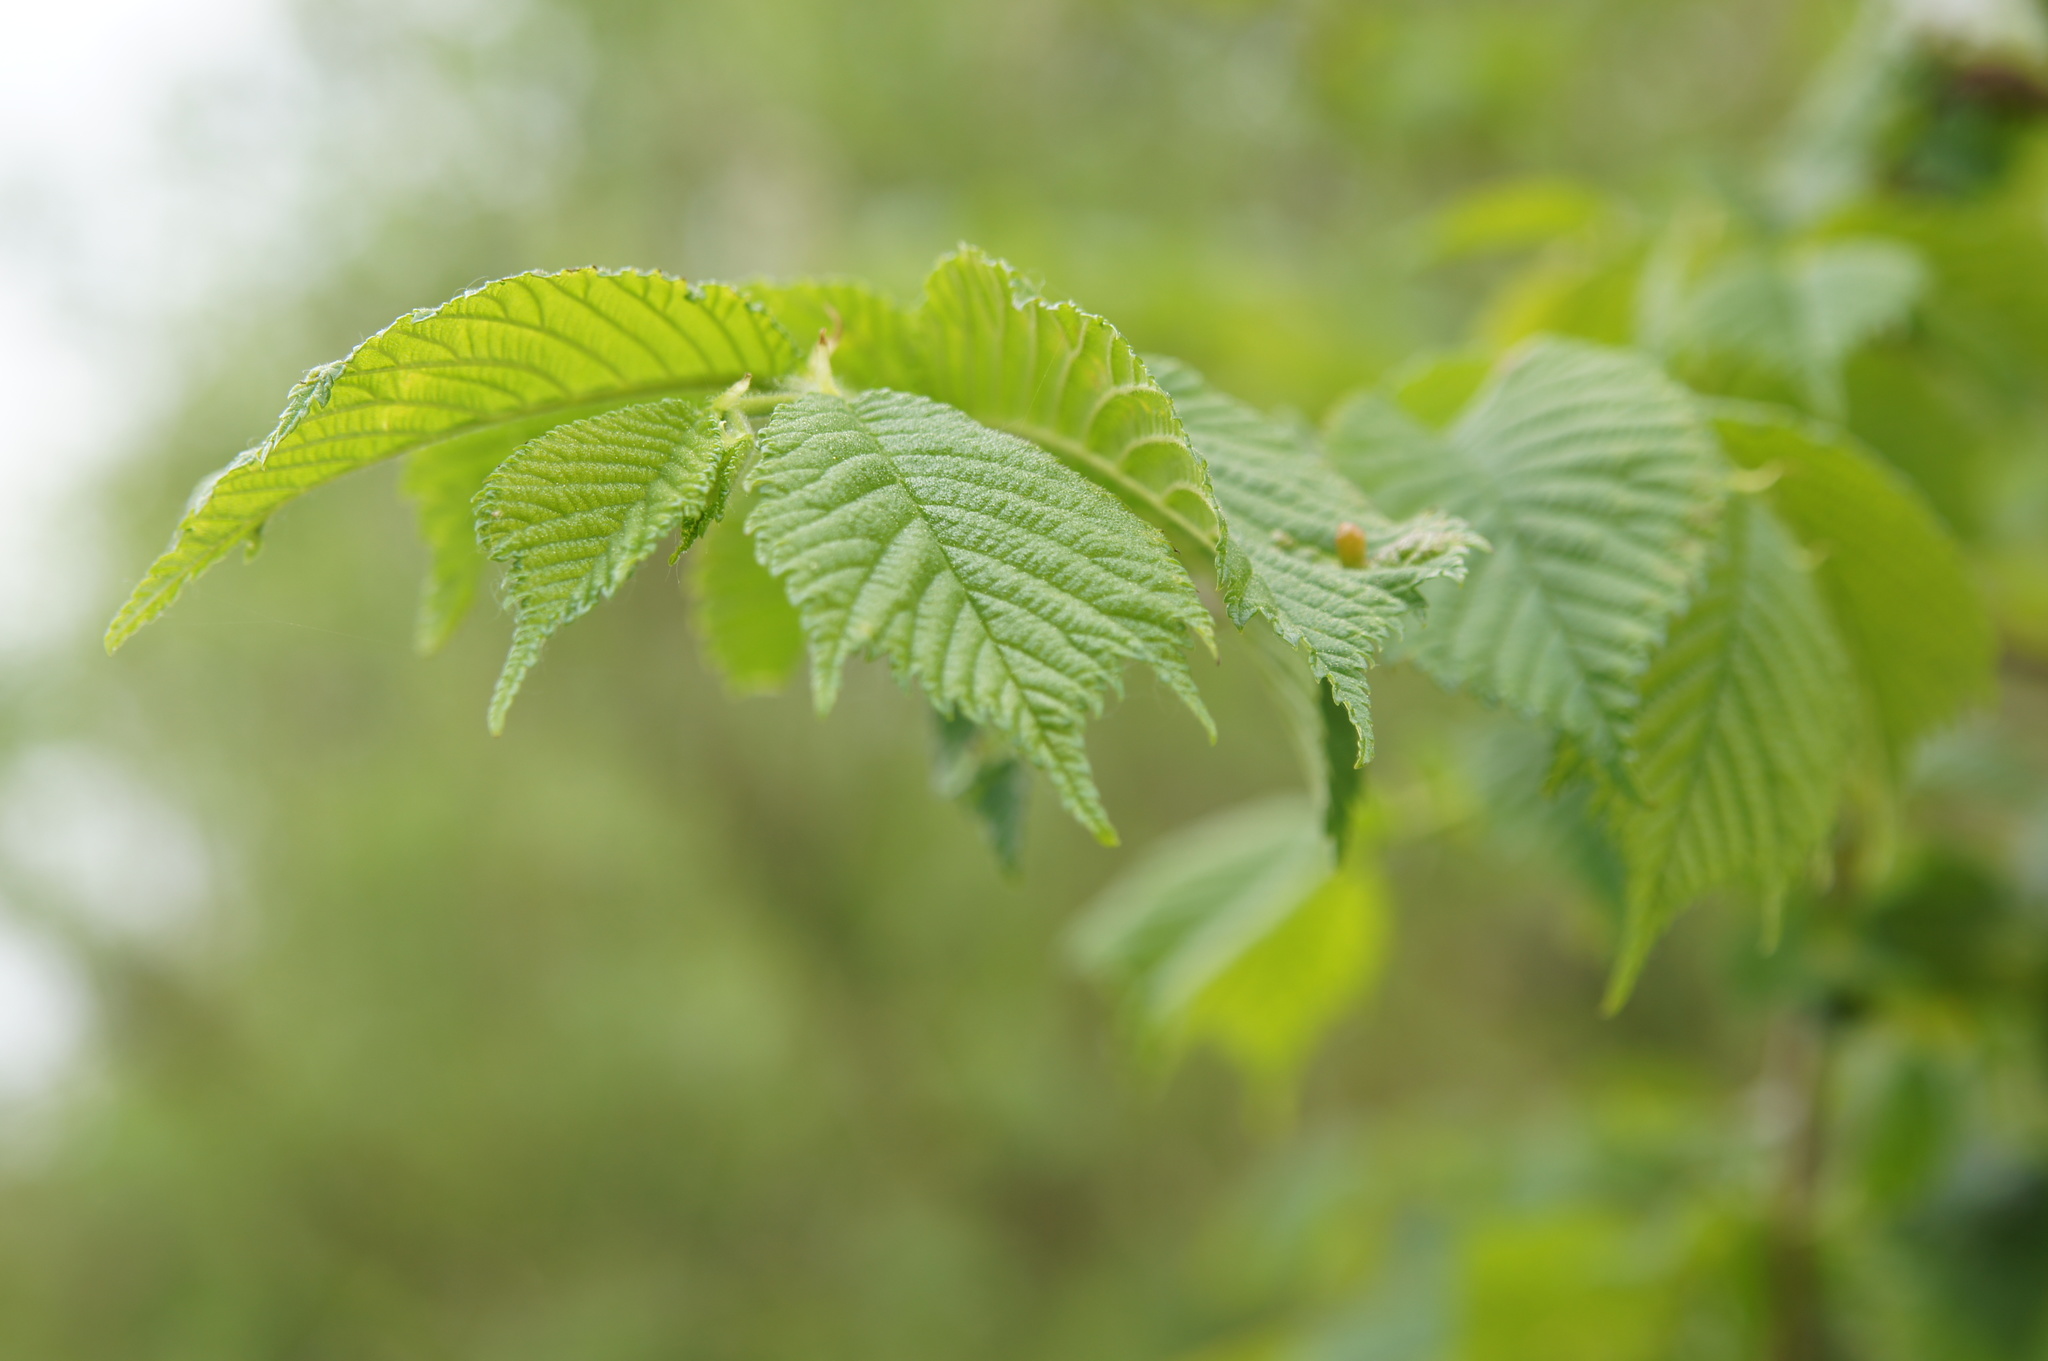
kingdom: Plantae
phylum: Tracheophyta
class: Magnoliopsida
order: Rosales
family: Ulmaceae
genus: Ulmus
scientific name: Ulmus glabra
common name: Wych elm
